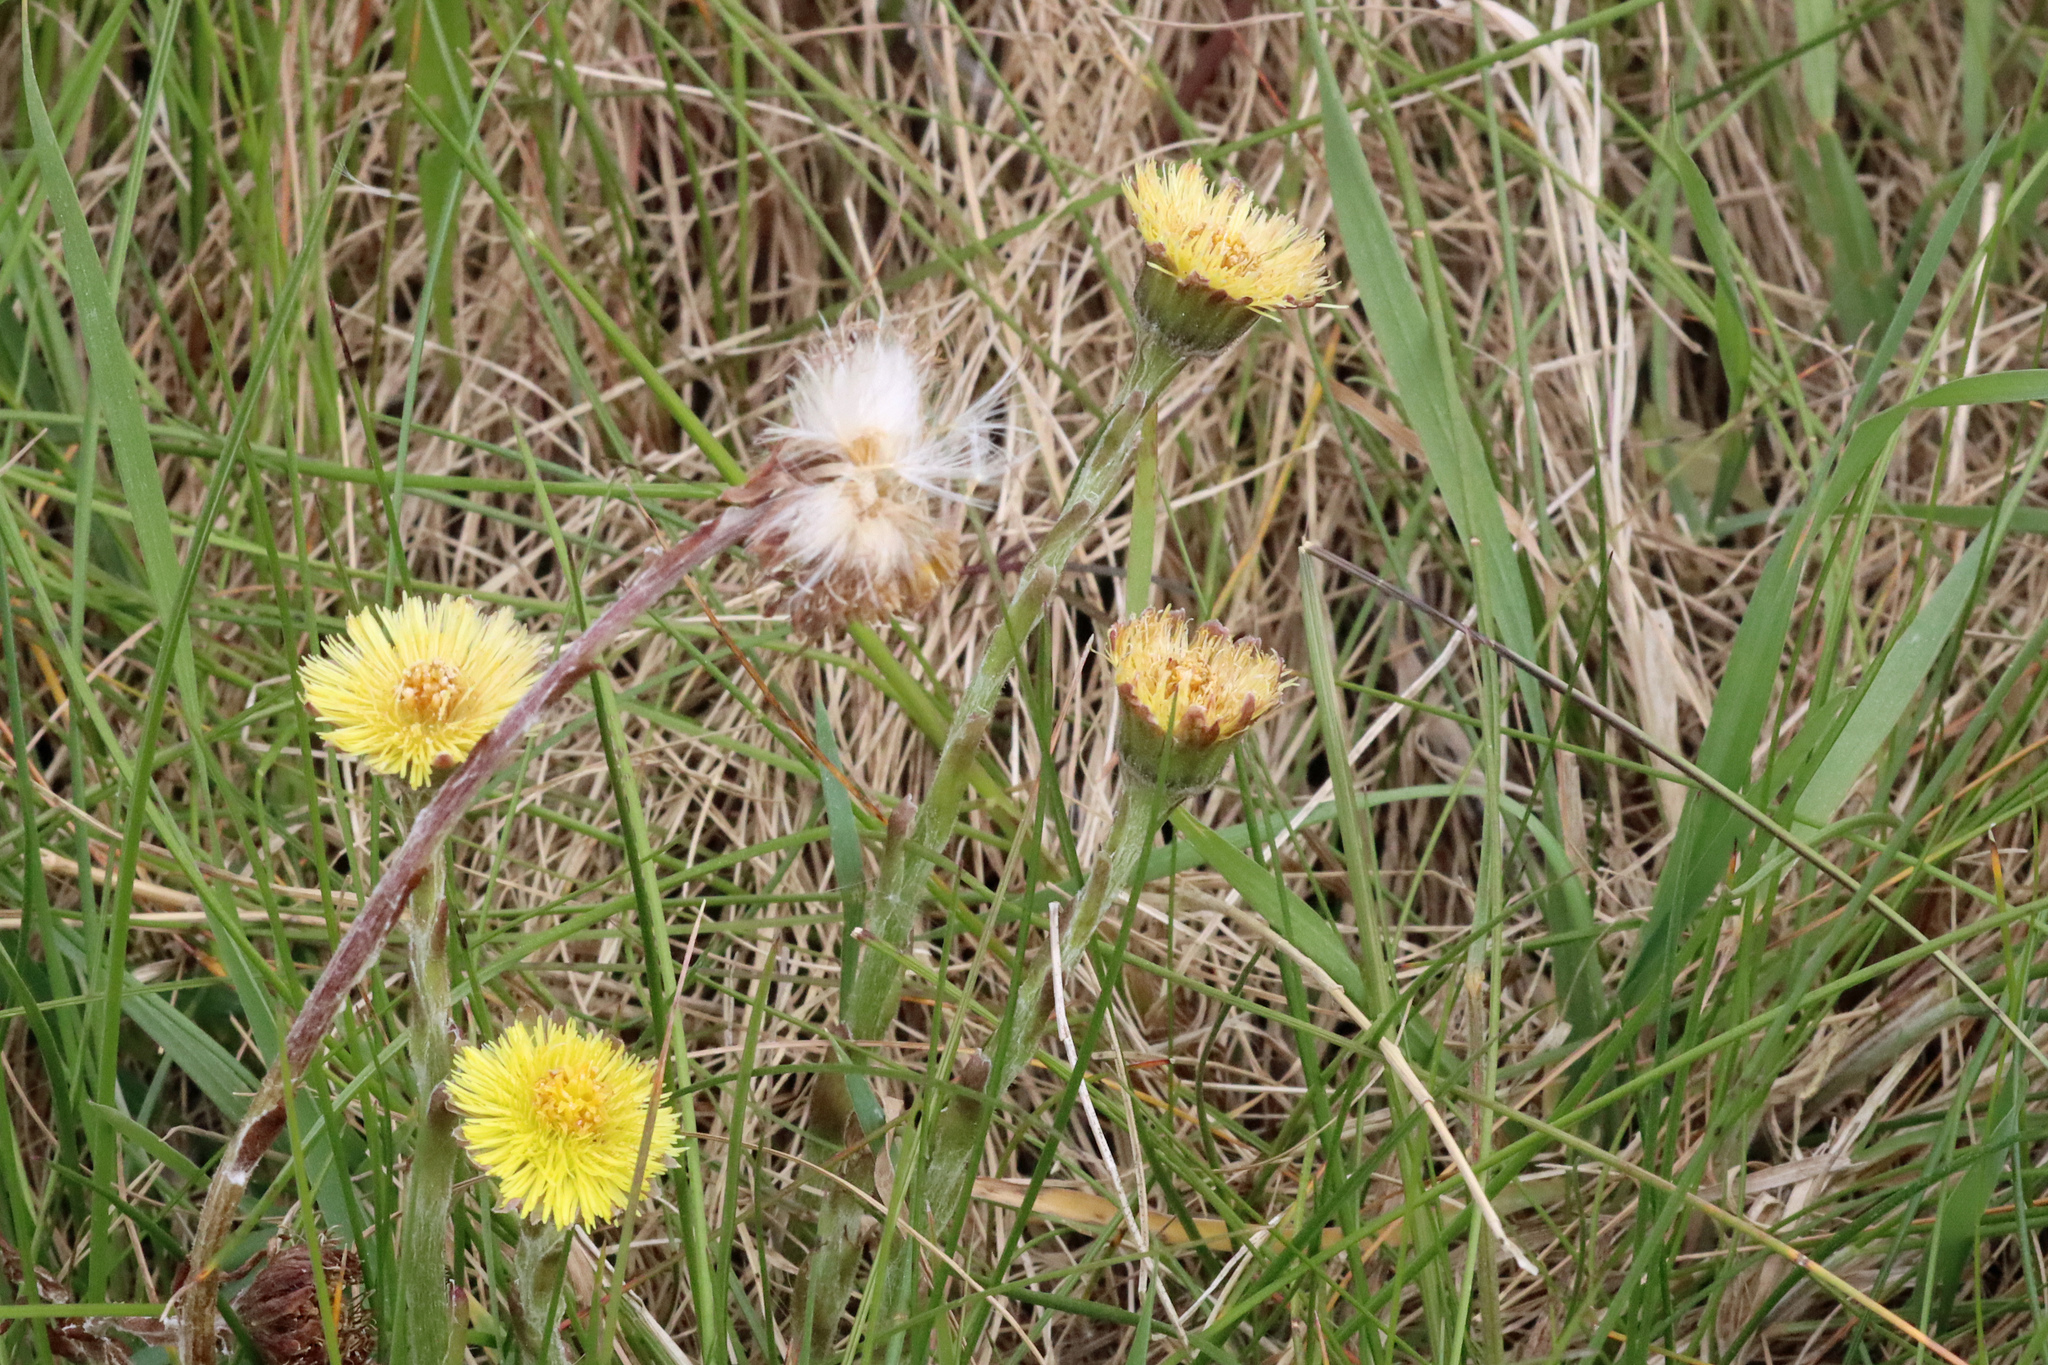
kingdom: Plantae
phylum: Tracheophyta
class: Magnoliopsida
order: Asterales
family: Asteraceae
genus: Tussilago
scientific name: Tussilago farfara
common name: Coltsfoot
